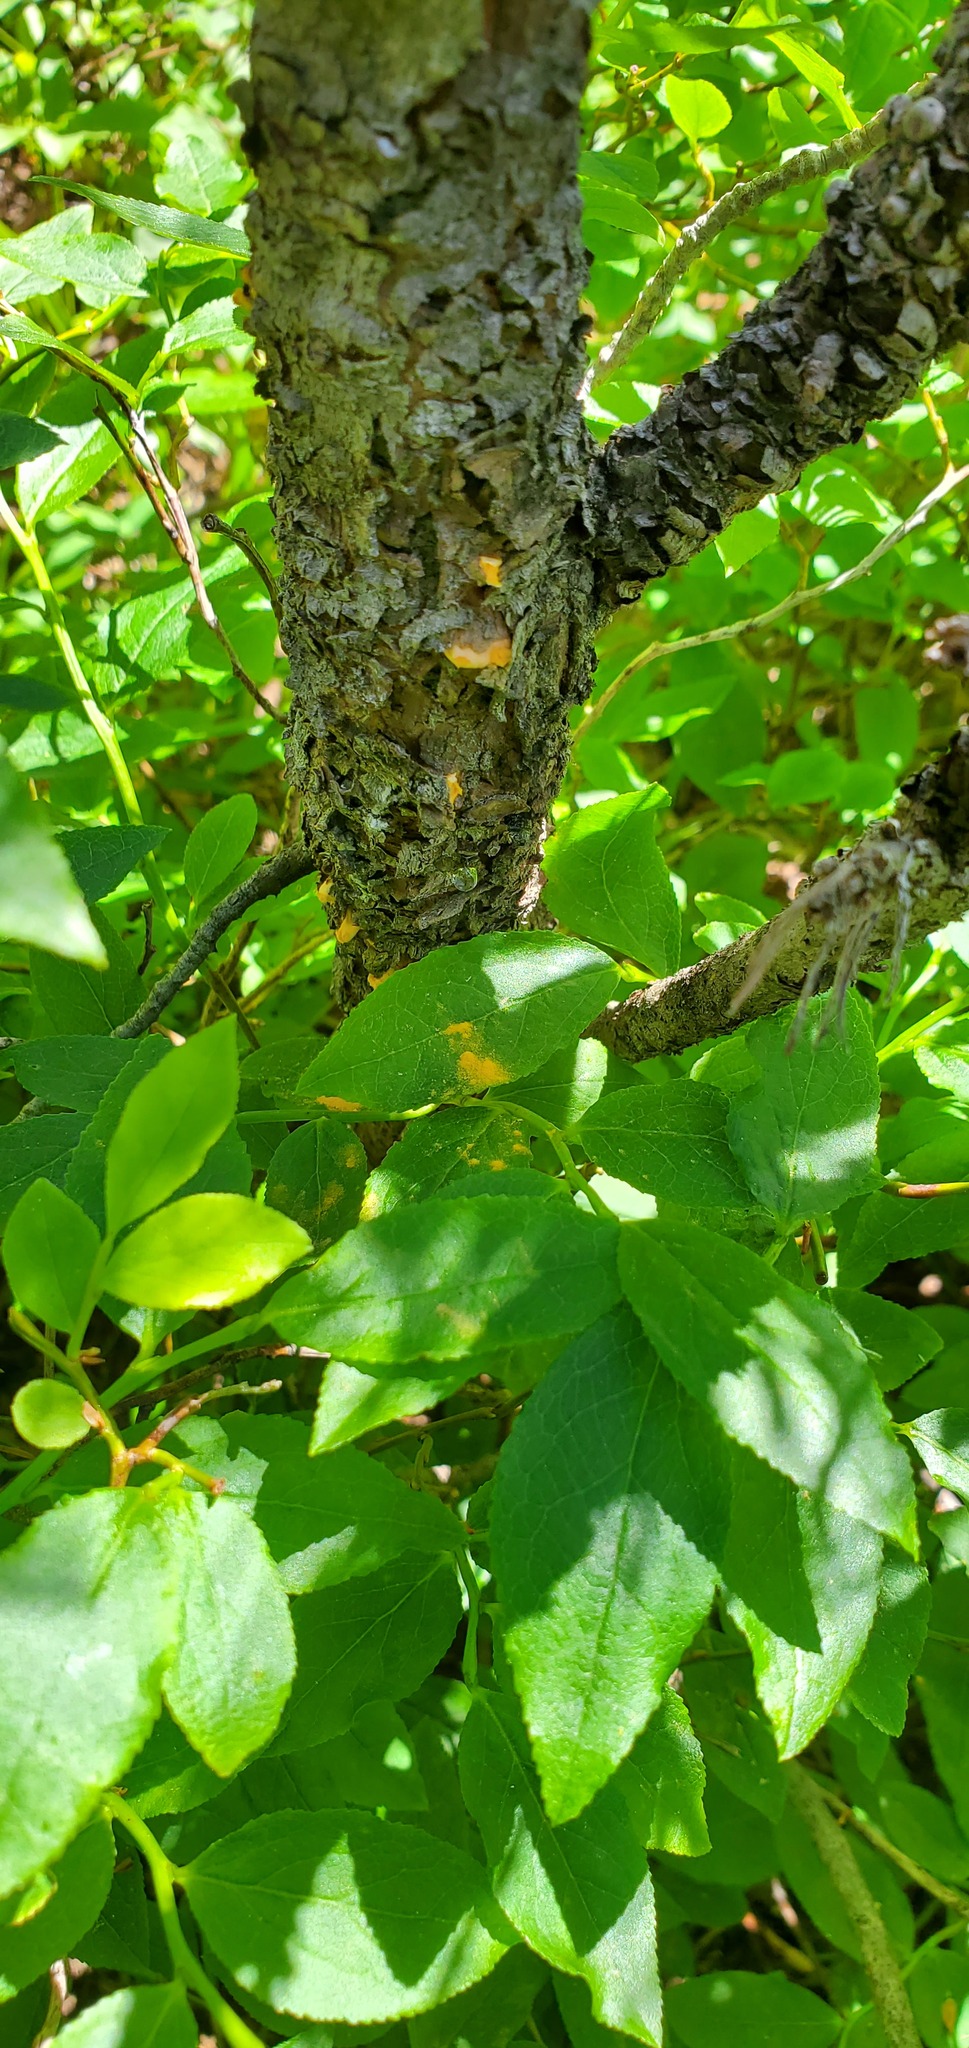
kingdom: Fungi
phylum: Basidiomycota
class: Pucciniomycetes
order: Pucciniales
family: Cronartiaceae
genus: Cronartium
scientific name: Cronartium ribicola
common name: White pine blister rust
